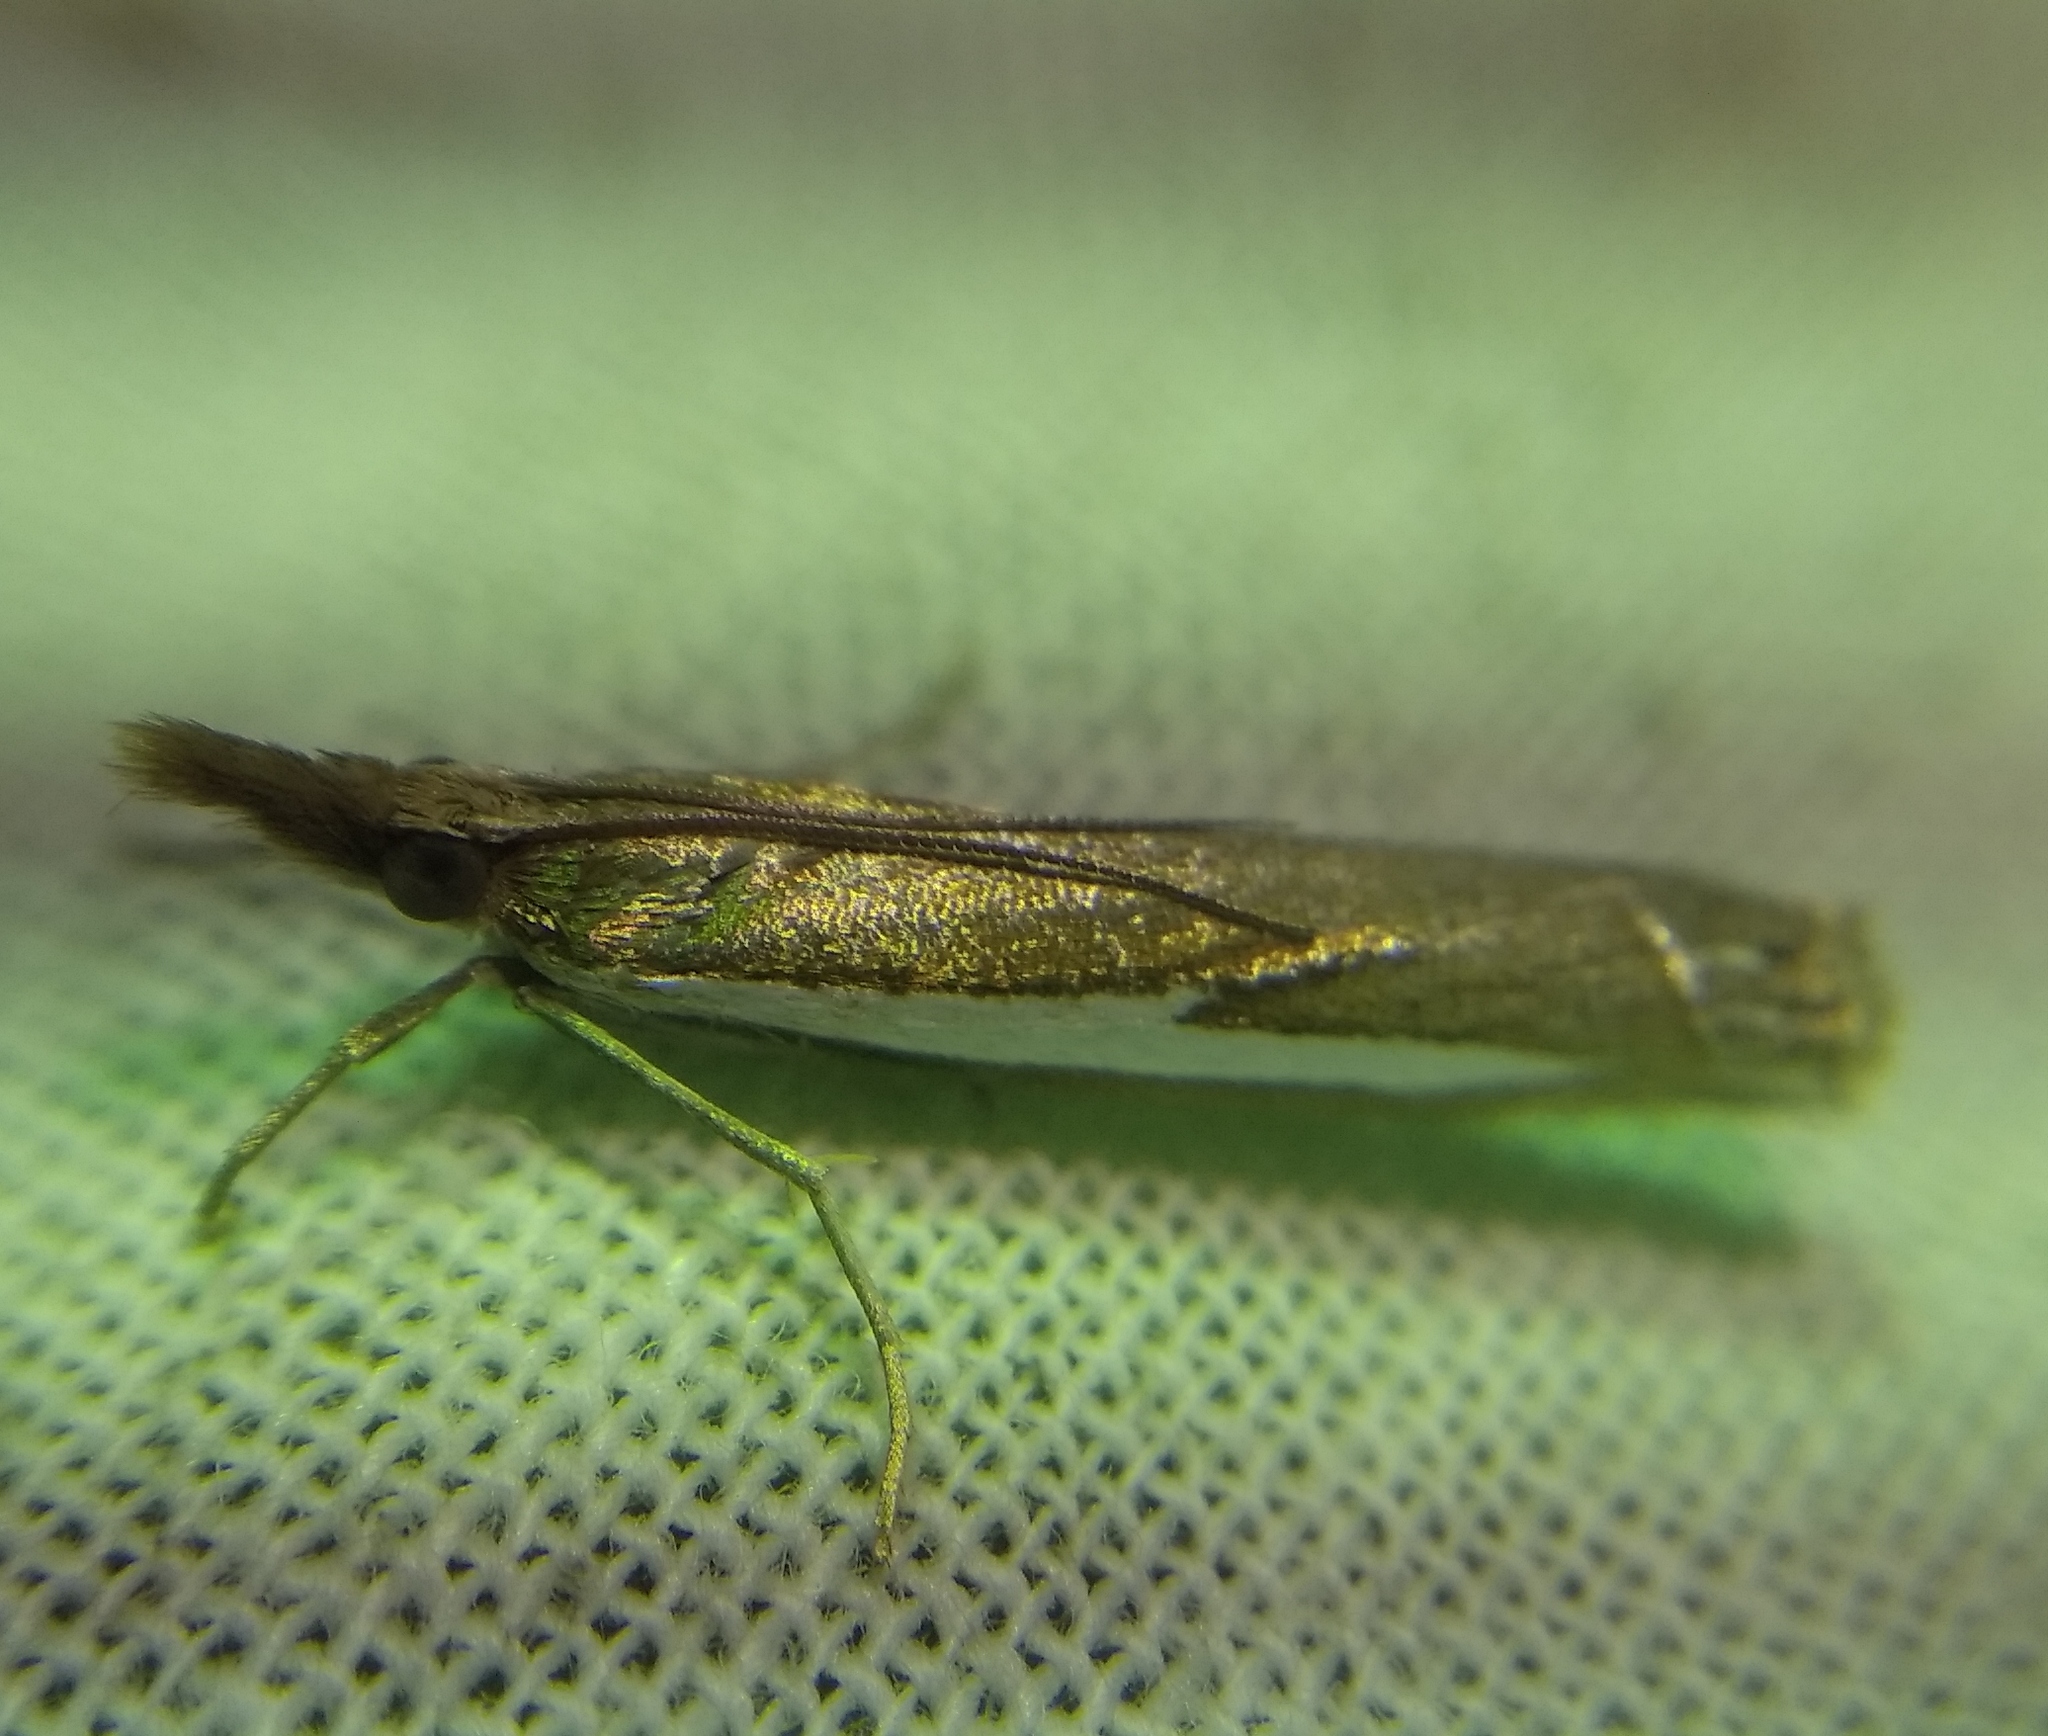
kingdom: Animalia
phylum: Arthropoda
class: Insecta
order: Lepidoptera
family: Crambidae
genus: Crambus
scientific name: Crambus hamella
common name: Dark grass-veneer
